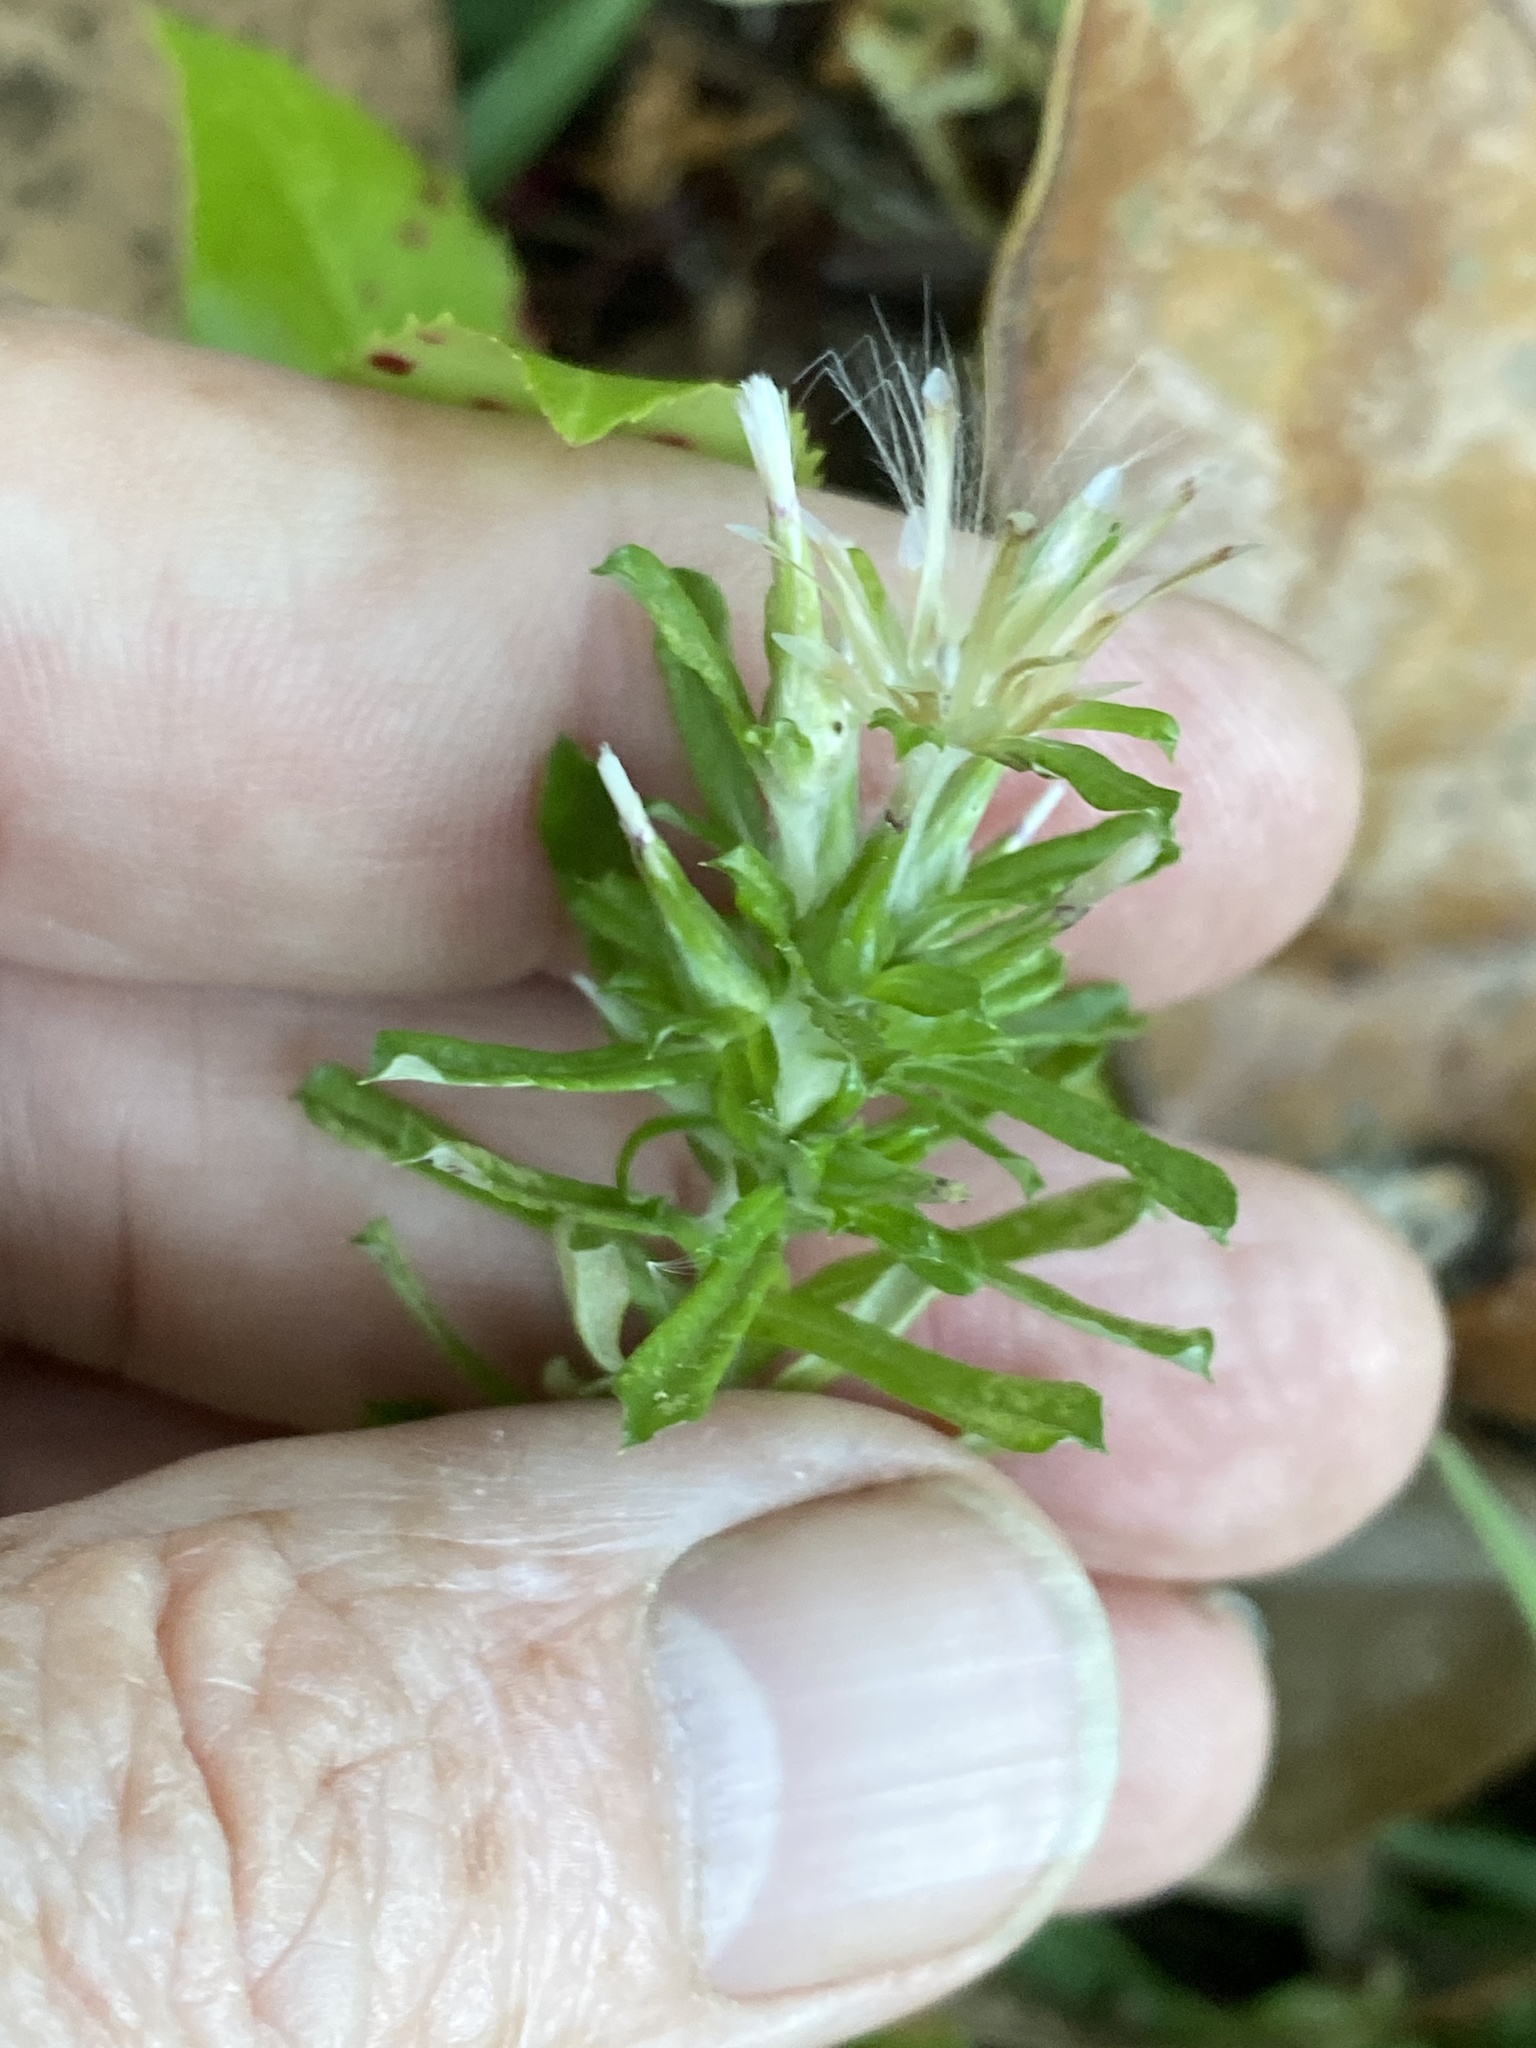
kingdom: Plantae
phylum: Tracheophyta
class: Magnoliopsida
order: Asterales
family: Asteraceae
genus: Facelis
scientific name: Facelis retusa
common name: Annual trampweed
